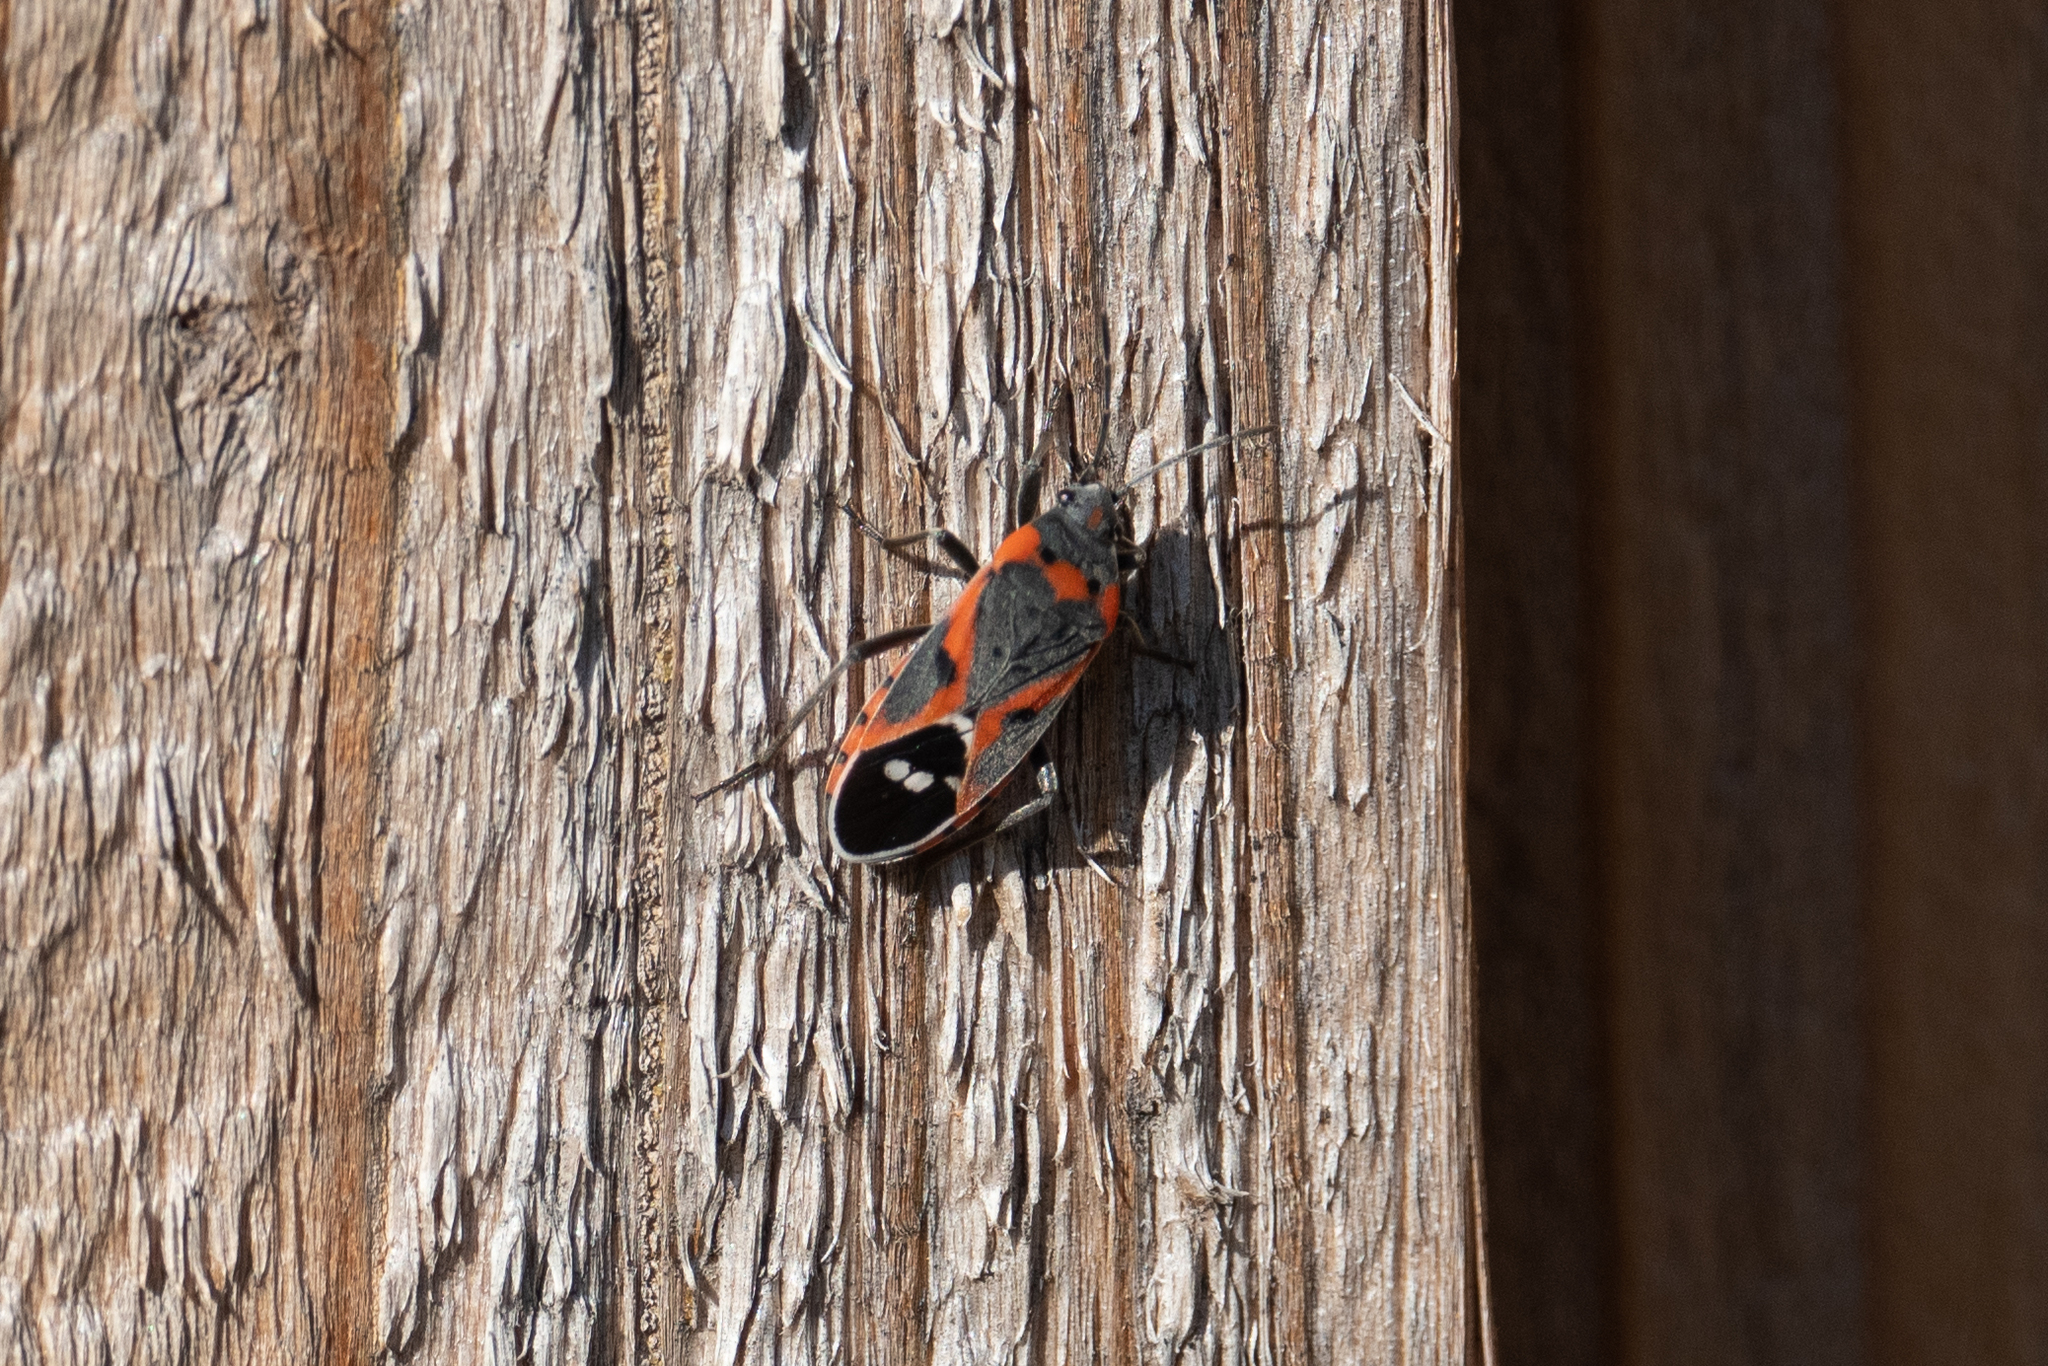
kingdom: Animalia
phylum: Arthropoda
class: Insecta
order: Hemiptera
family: Lygaeidae
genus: Lygaeus
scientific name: Lygaeus kalmii
